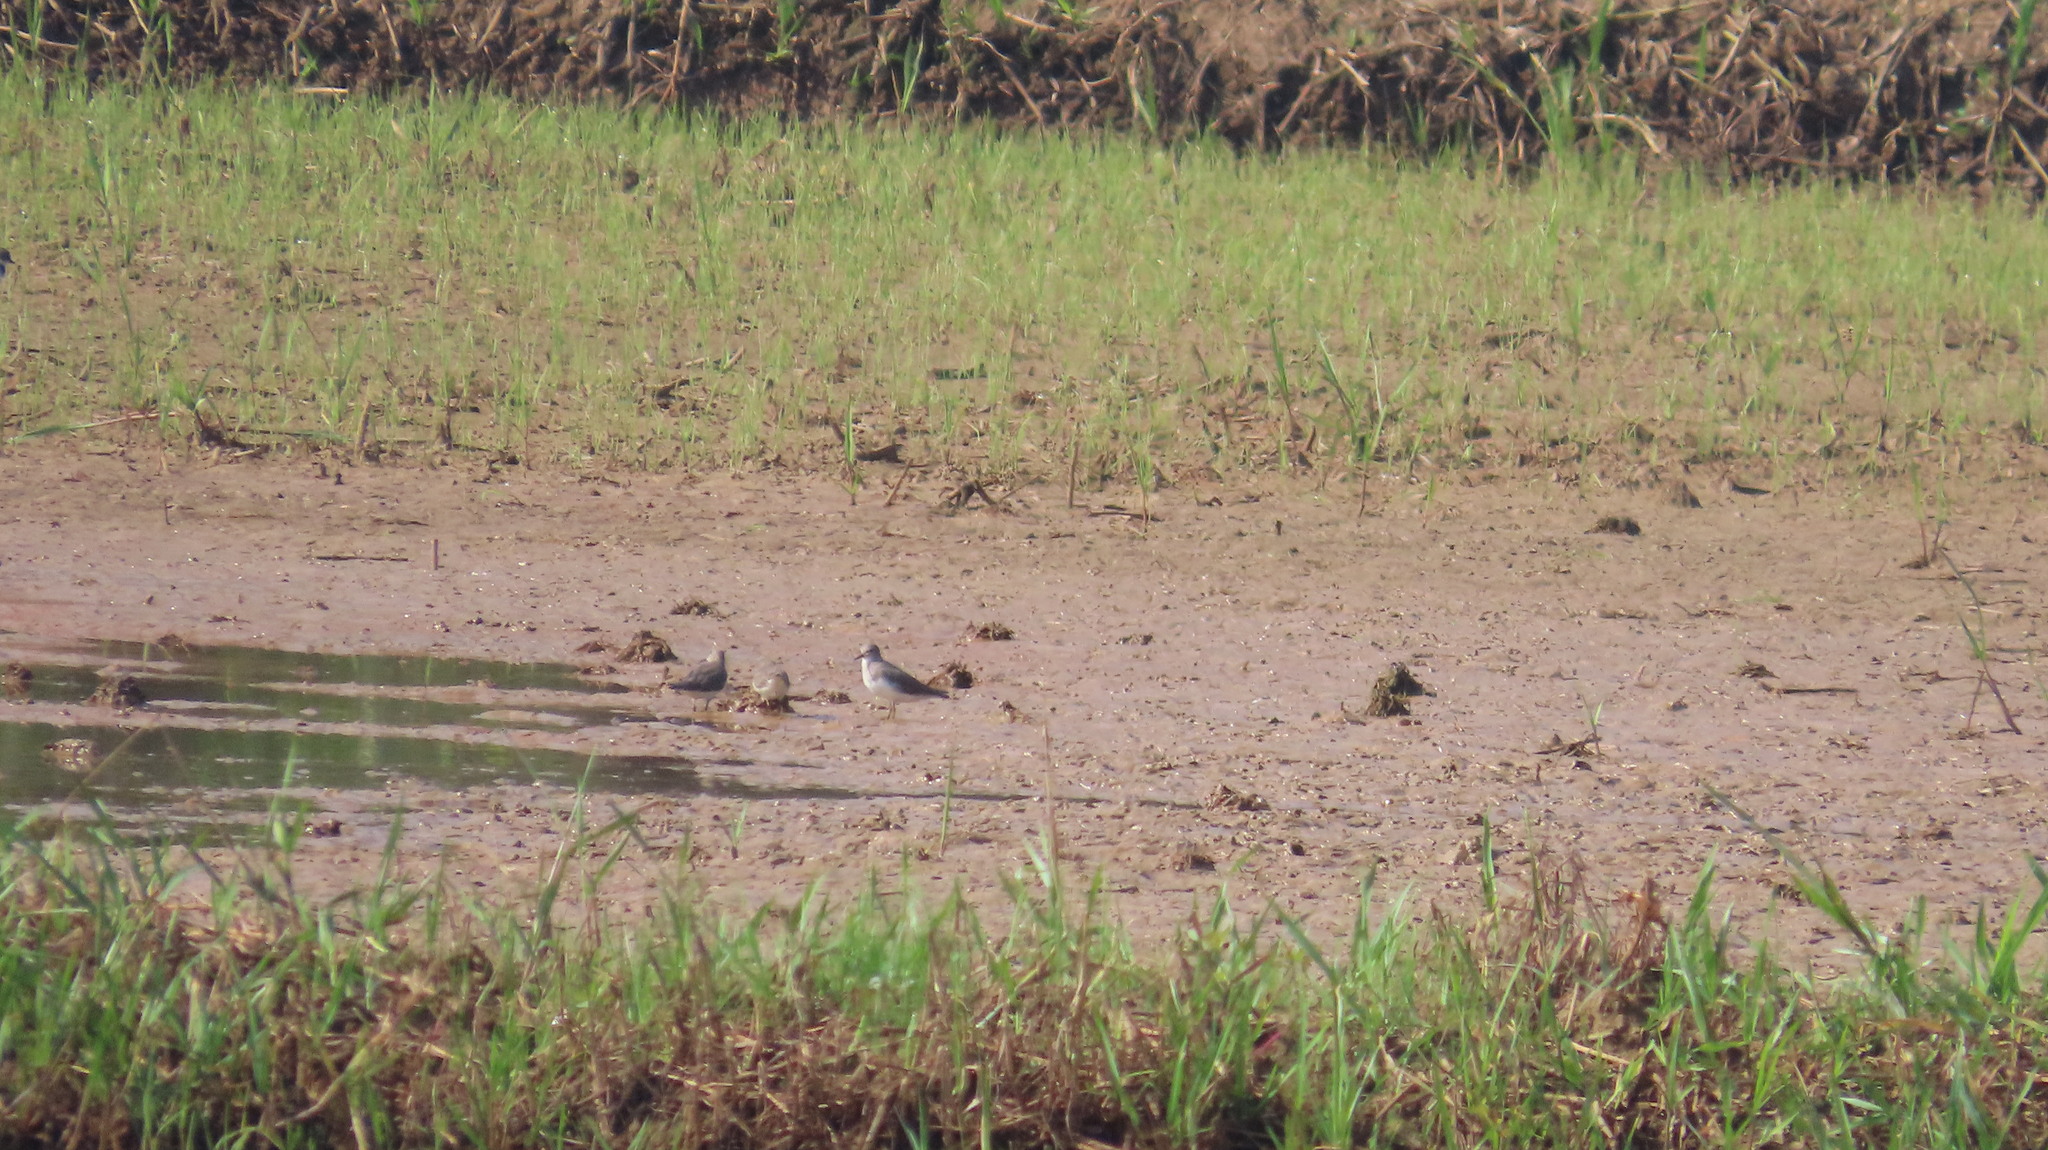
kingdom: Animalia
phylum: Chordata
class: Aves
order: Charadriiformes
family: Scolopacidae
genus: Calidris
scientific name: Calidris temminckii
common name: Temminck's stint
